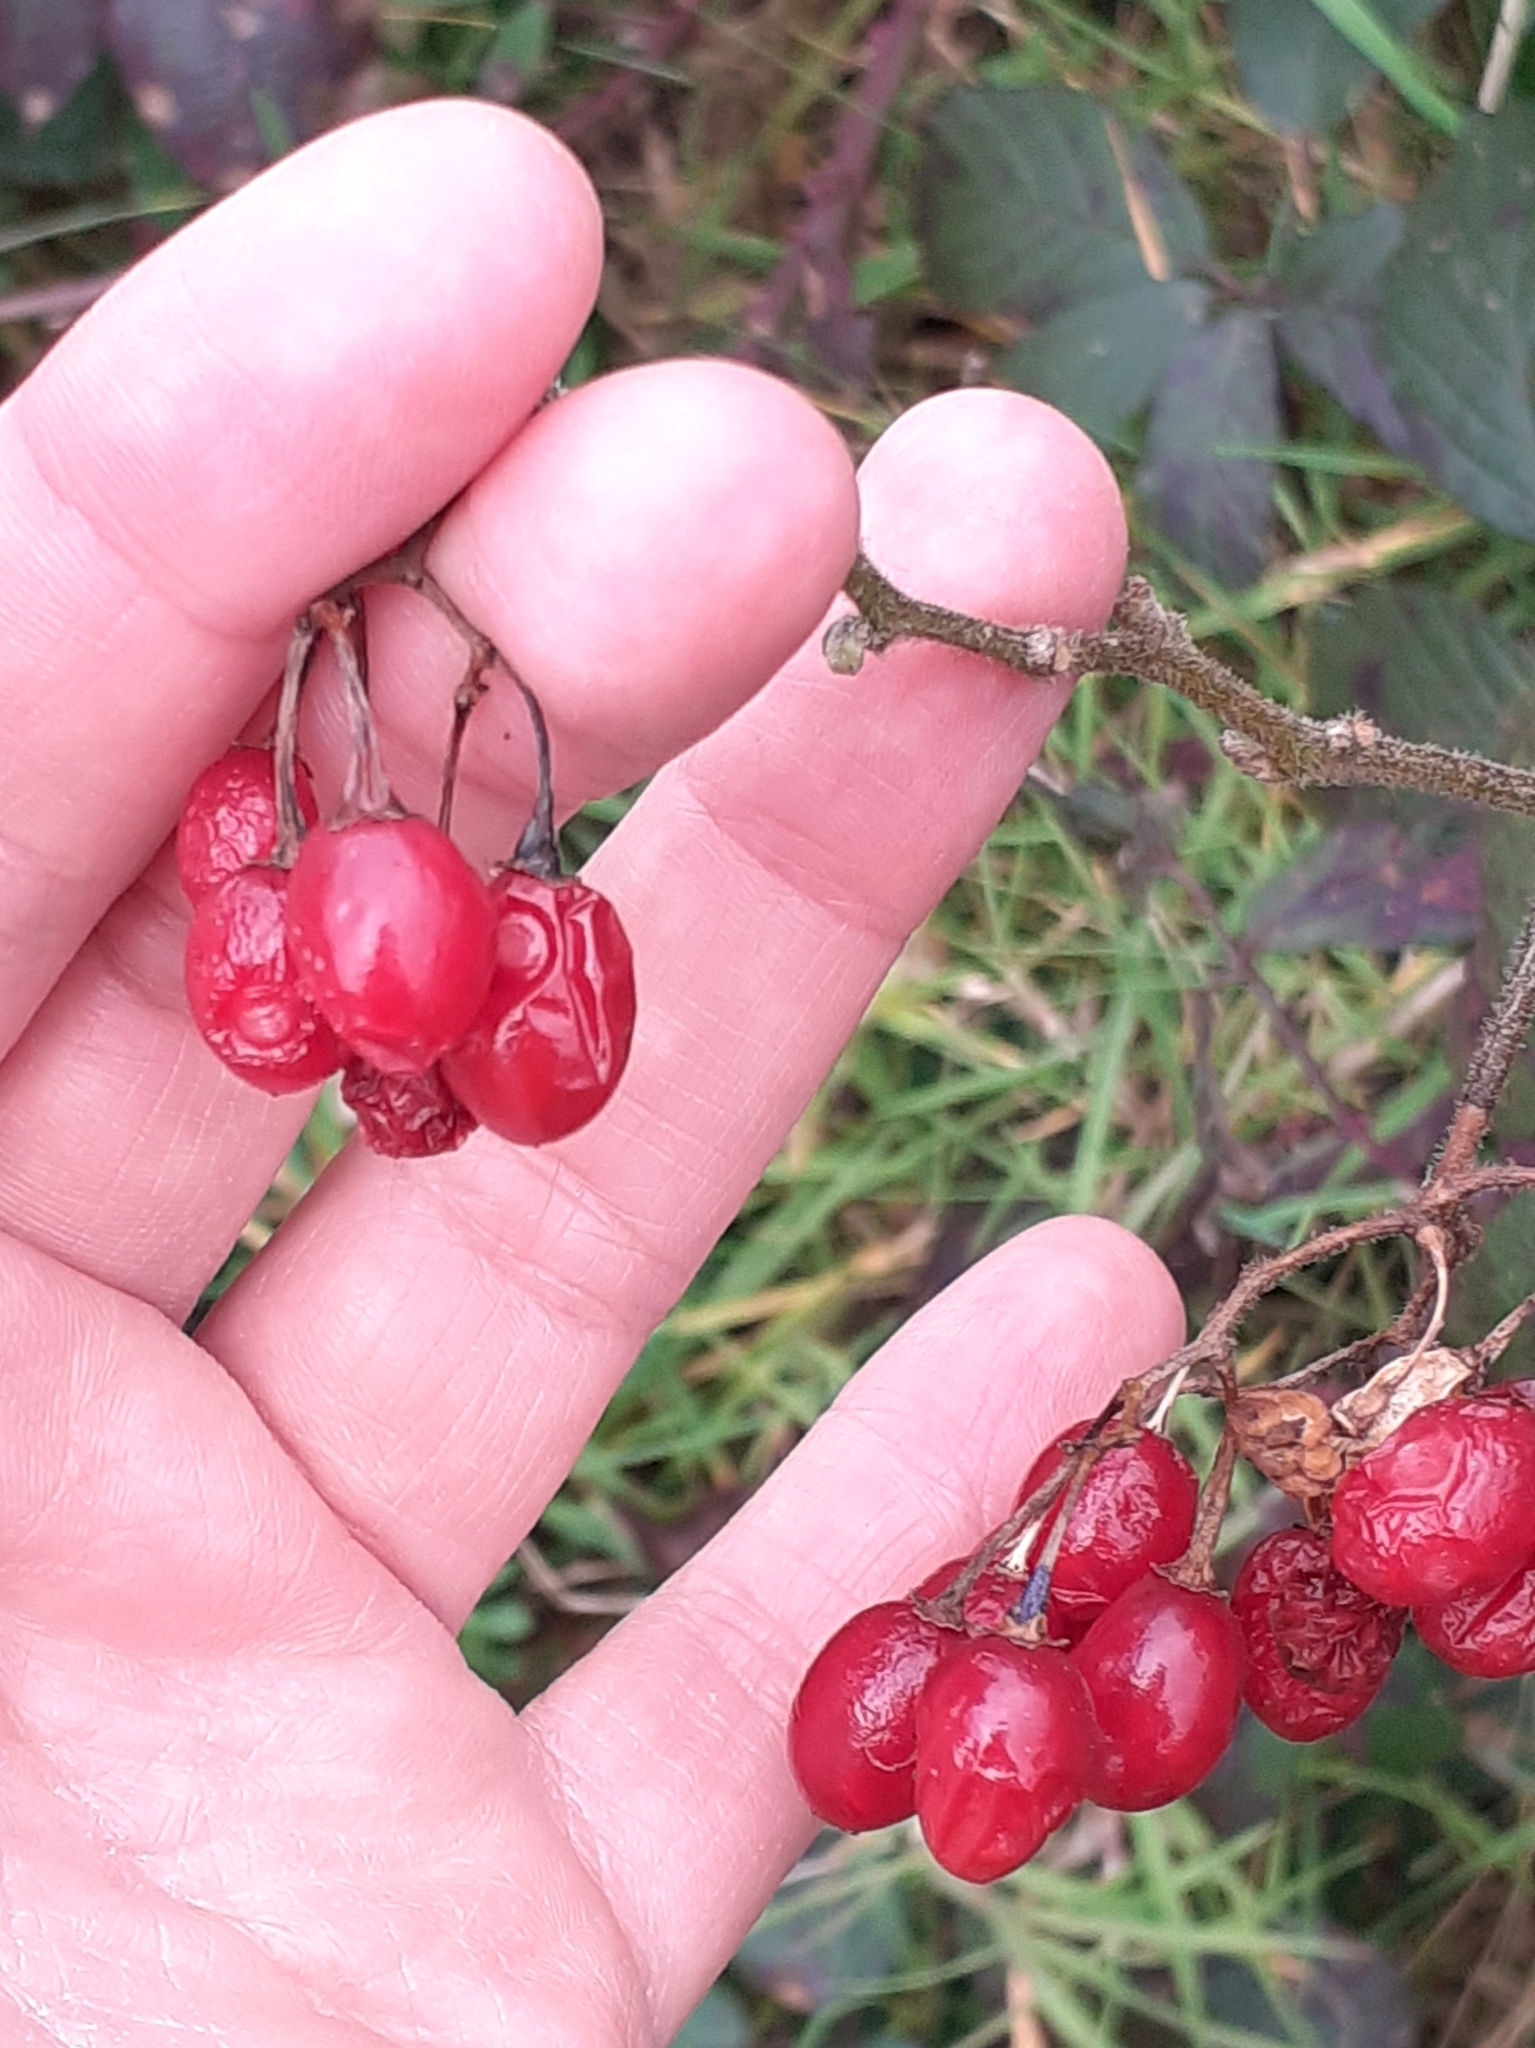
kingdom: Plantae
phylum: Tracheophyta
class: Magnoliopsida
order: Solanales
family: Solanaceae
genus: Solanum
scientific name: Solanum dulcamara
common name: Climbing nightshade
